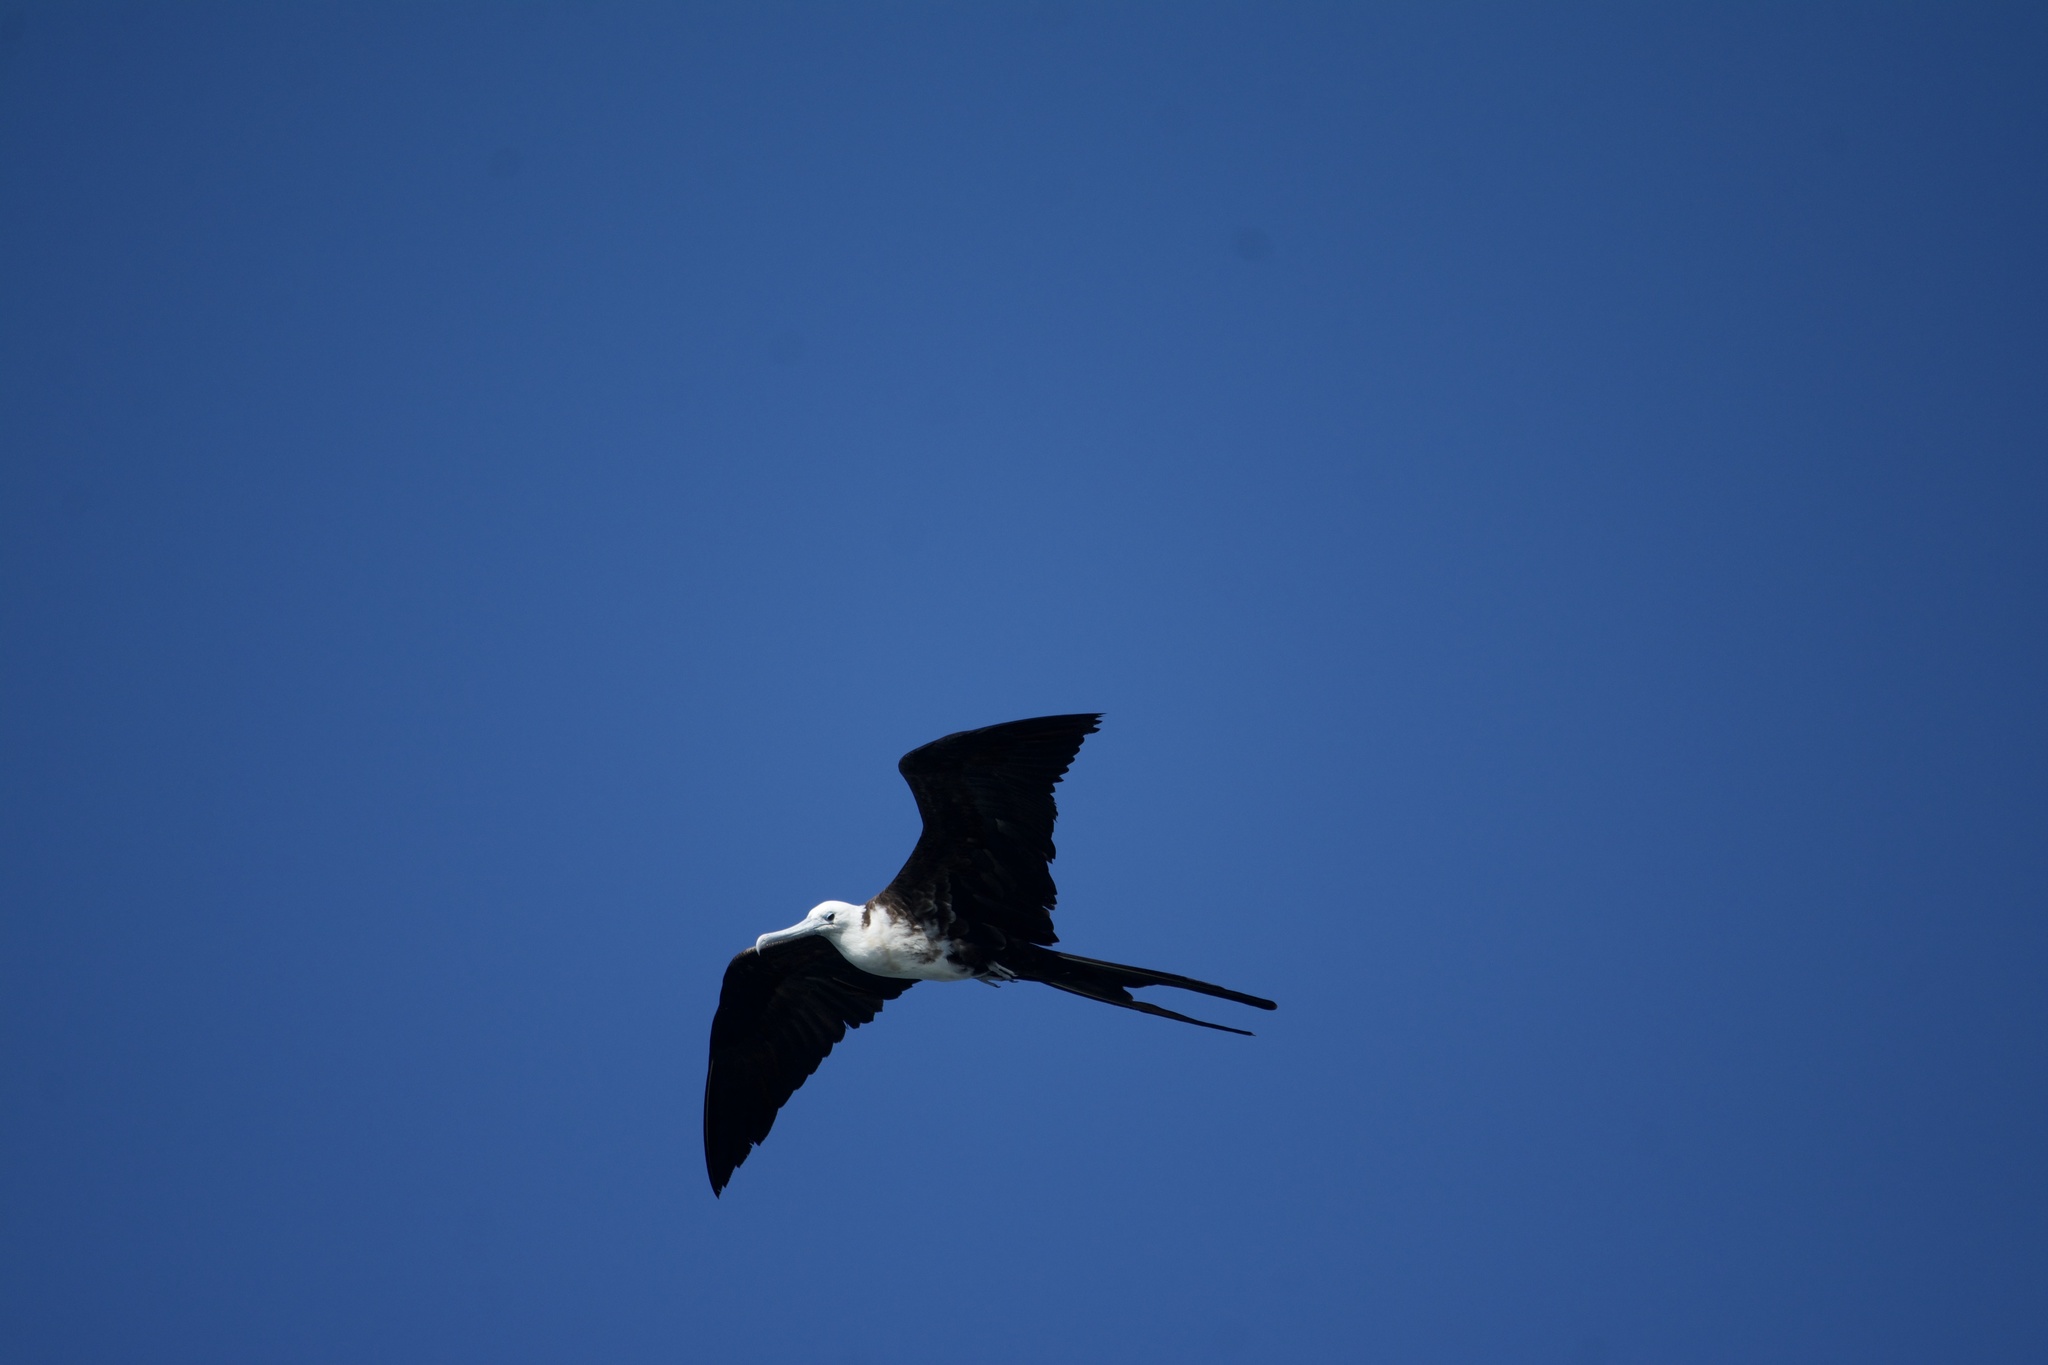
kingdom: Animalia
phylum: Chordata
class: Aves
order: Suliformes
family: Fregatidae
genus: Fregata
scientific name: Fregata magnificens
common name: Magnificent frigatebird
